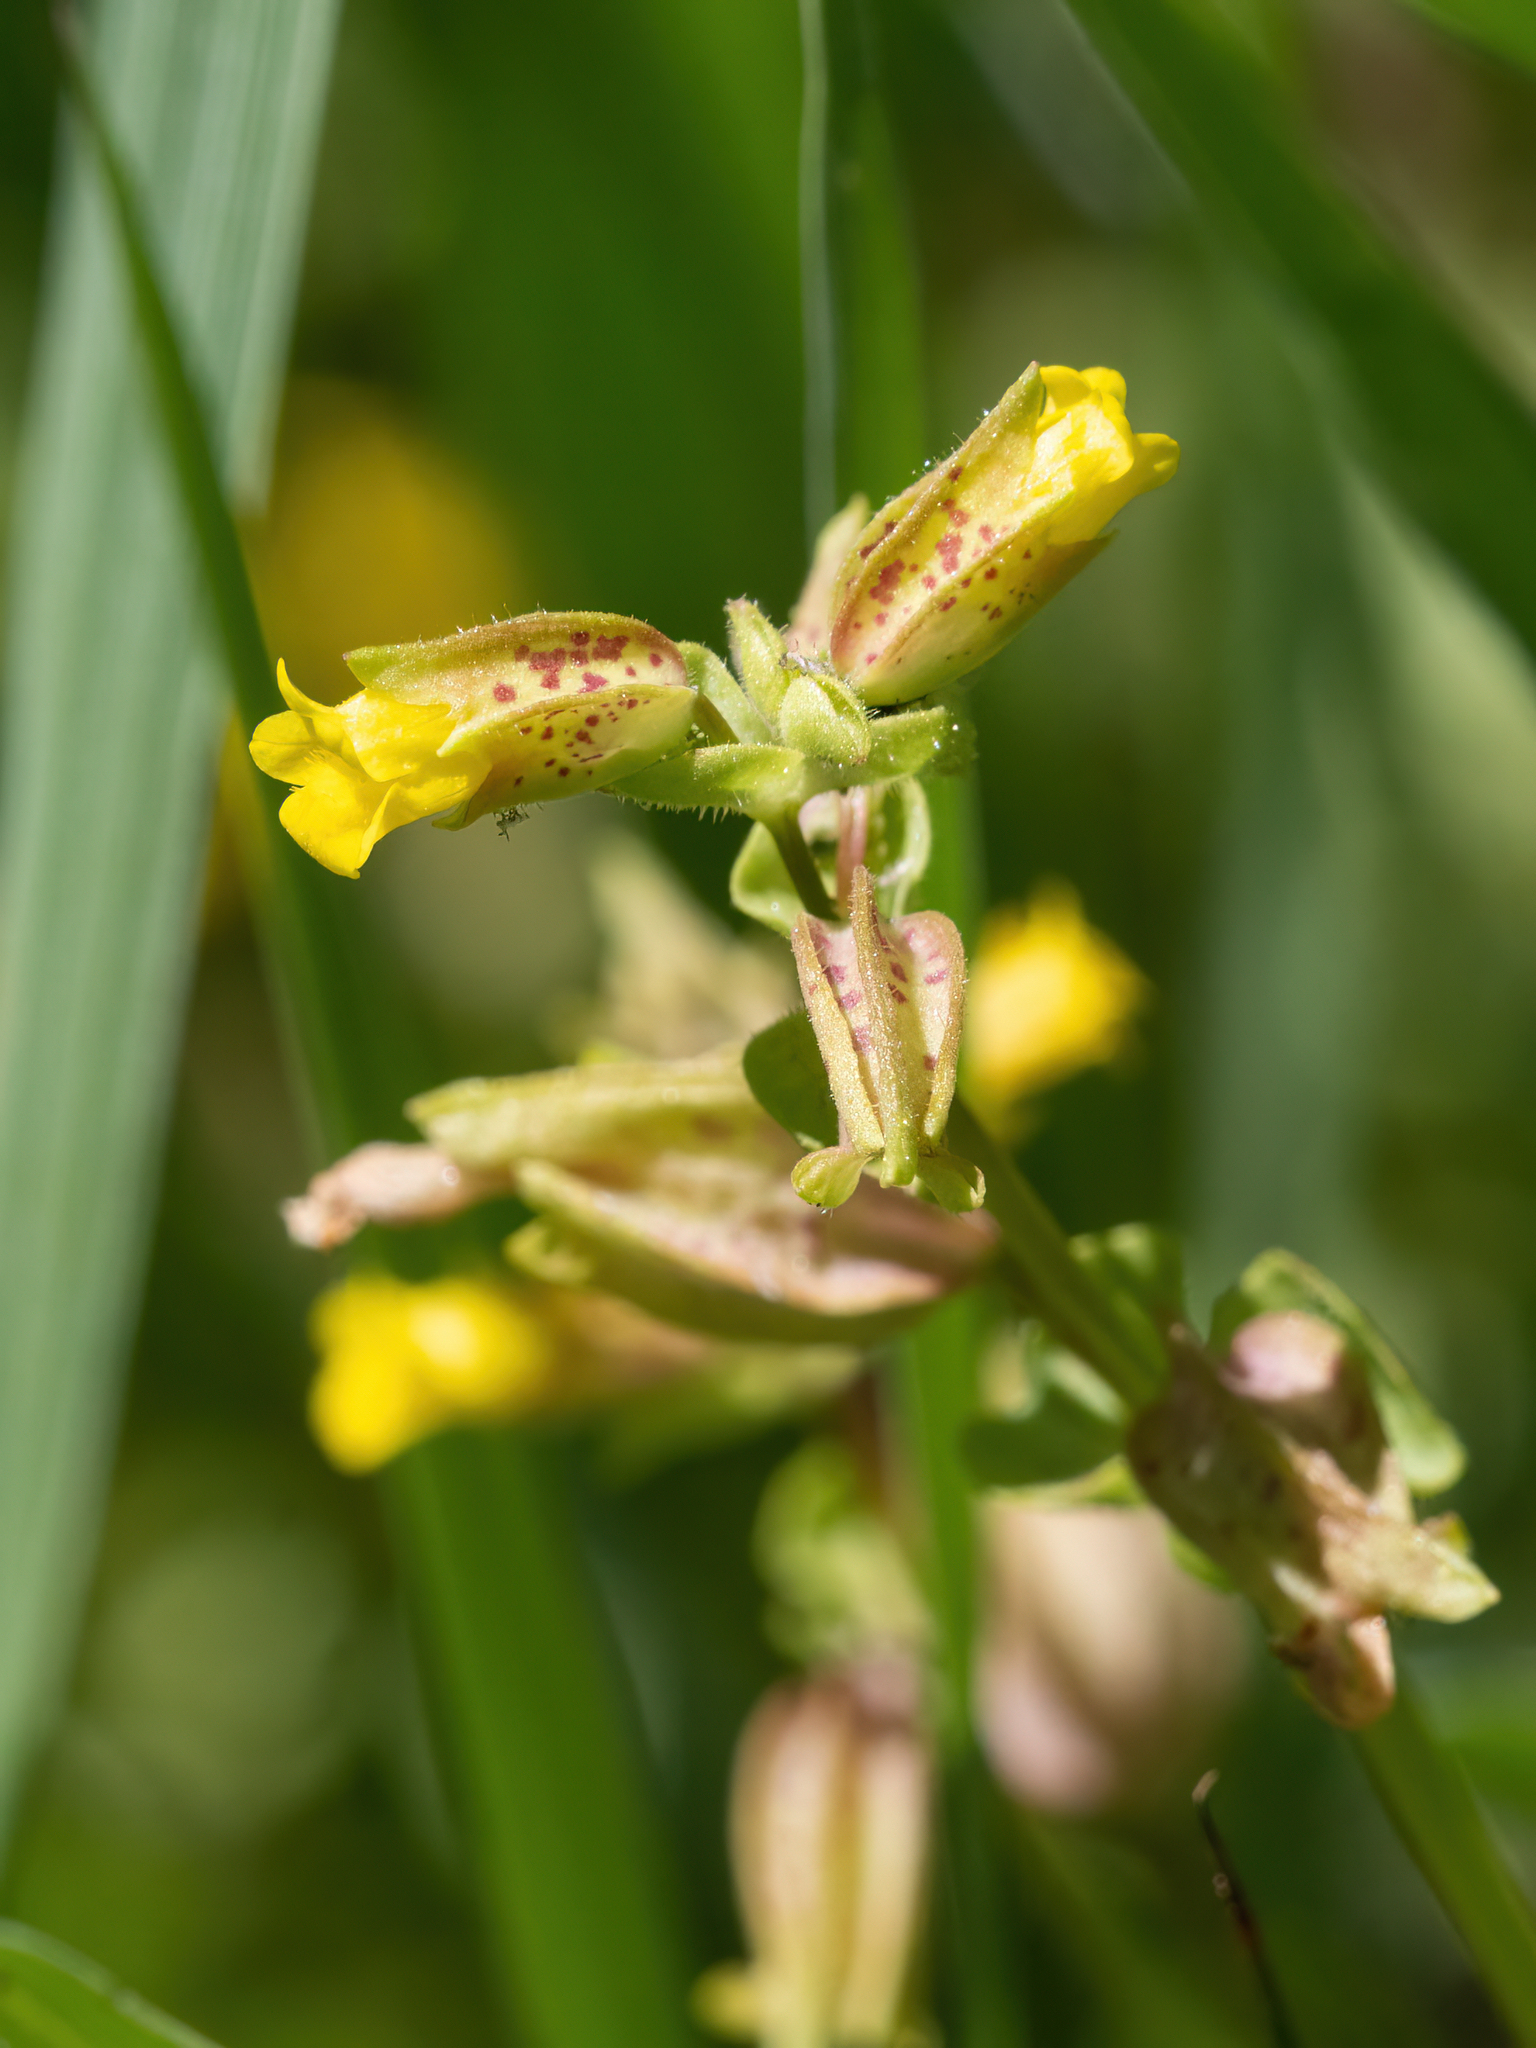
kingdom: Plantae
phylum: Tracheophyta
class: Magnoliopsida
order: Lamiales
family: Phrymaceae
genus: Erythranthe
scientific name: Erythranthe arvensis
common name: Field monkeyflower
